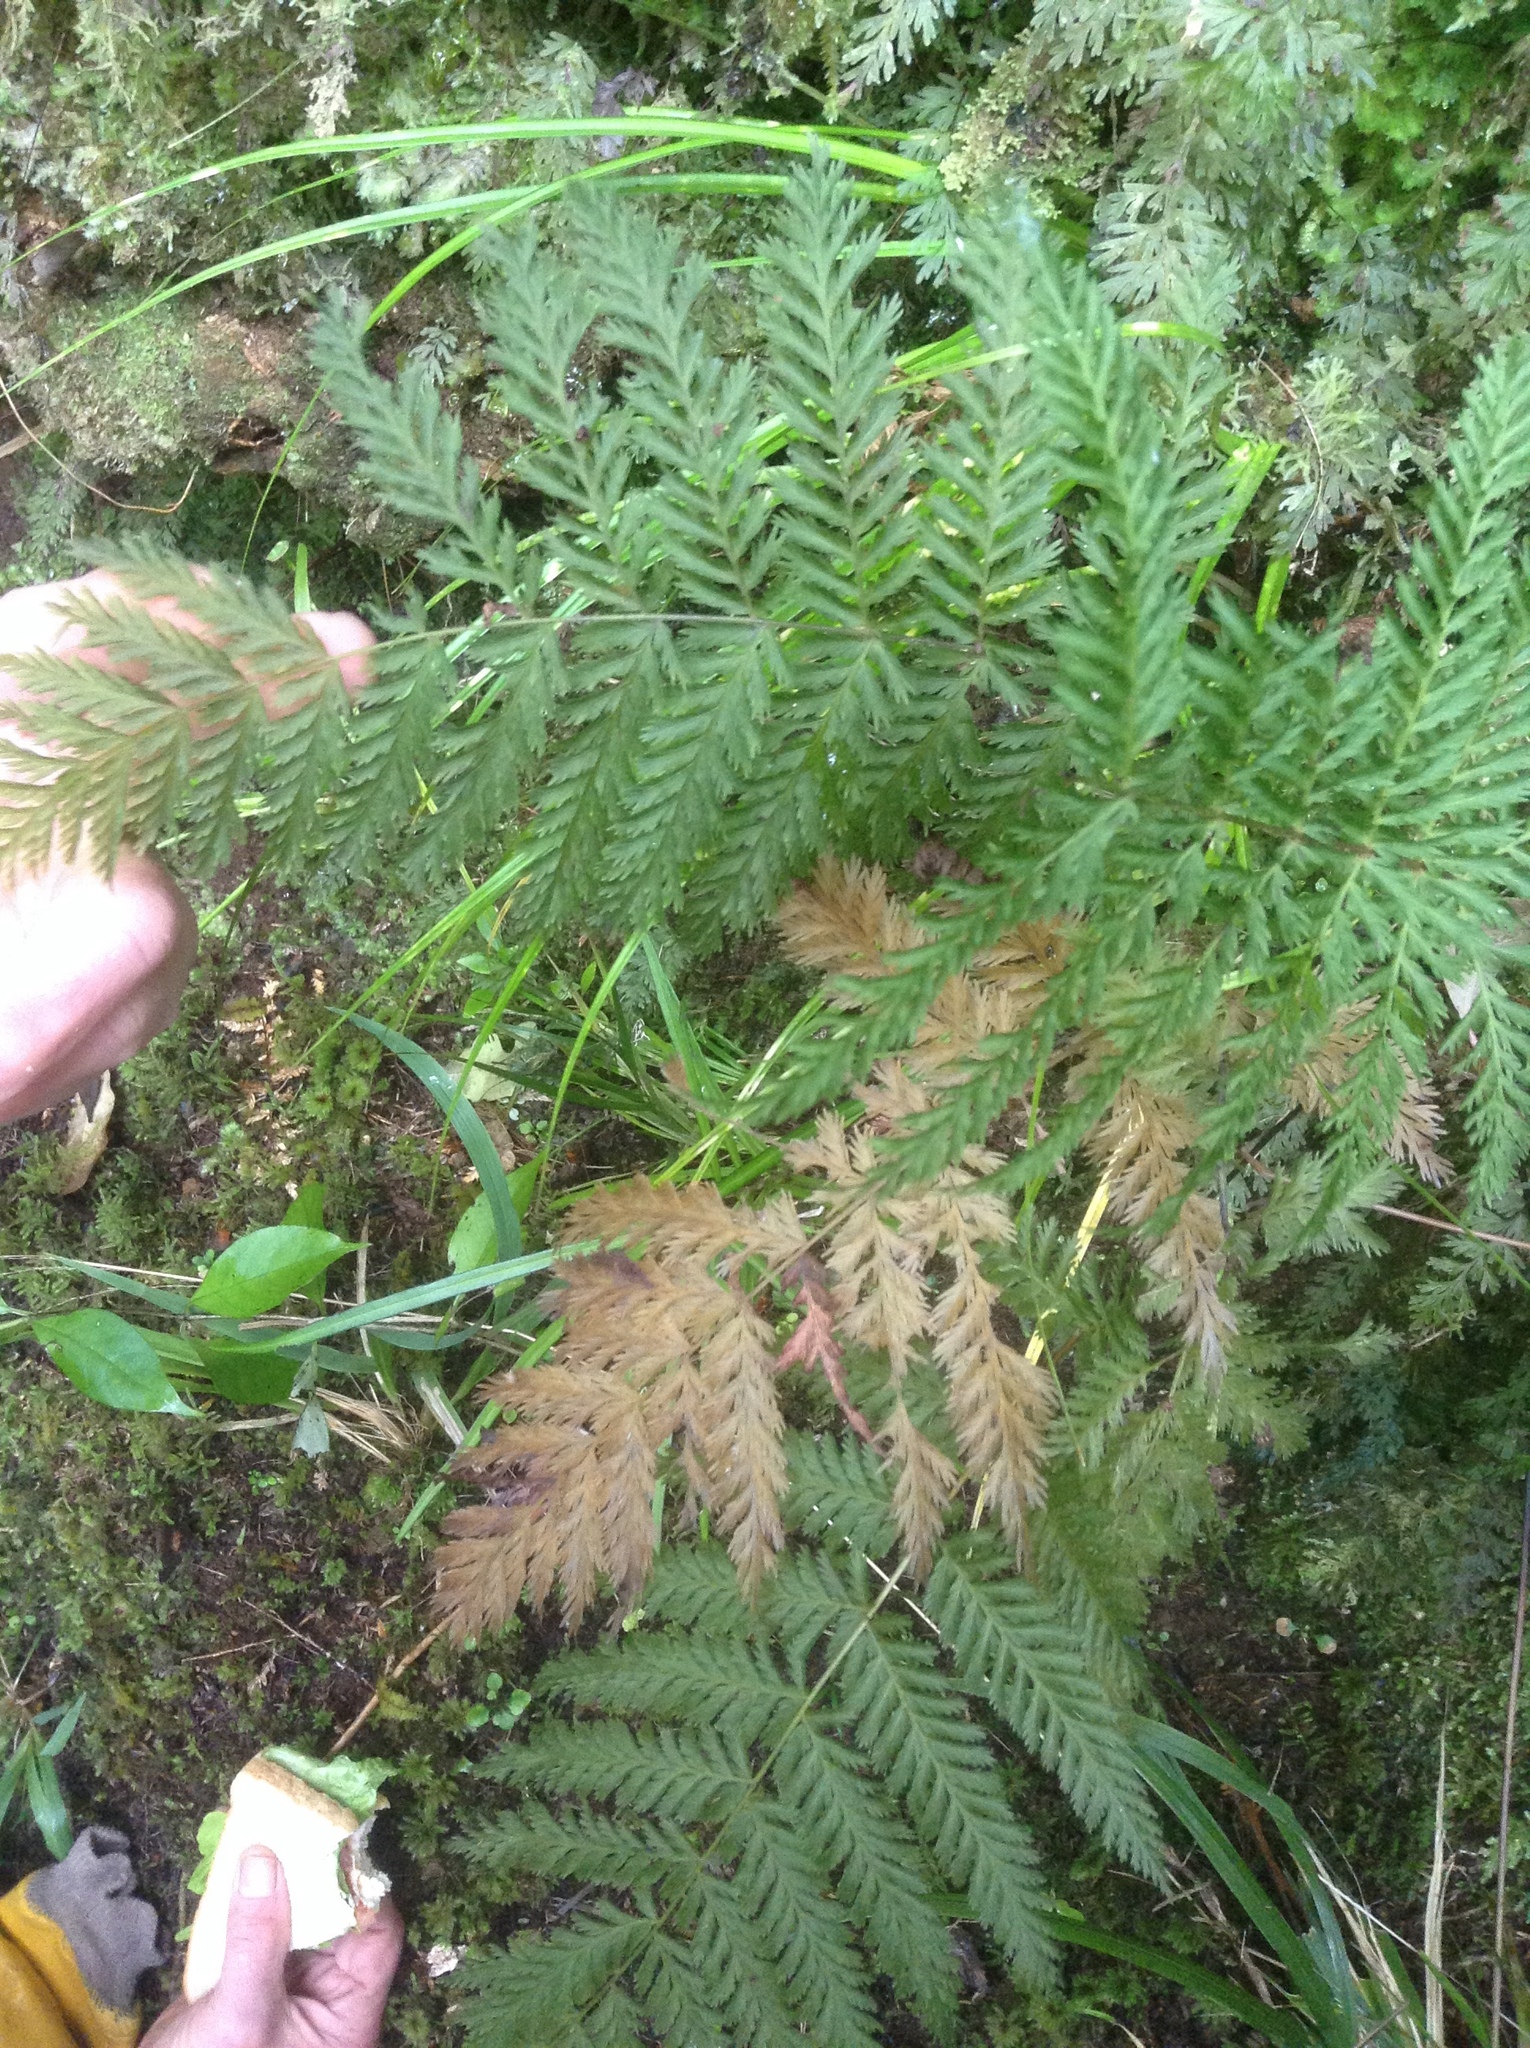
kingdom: Plantae
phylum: Tracheophyta
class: Polypodiopsida
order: Osmundales
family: Osmundaceae
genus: Leptopteris
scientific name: Leptopteris hymenophylloides
